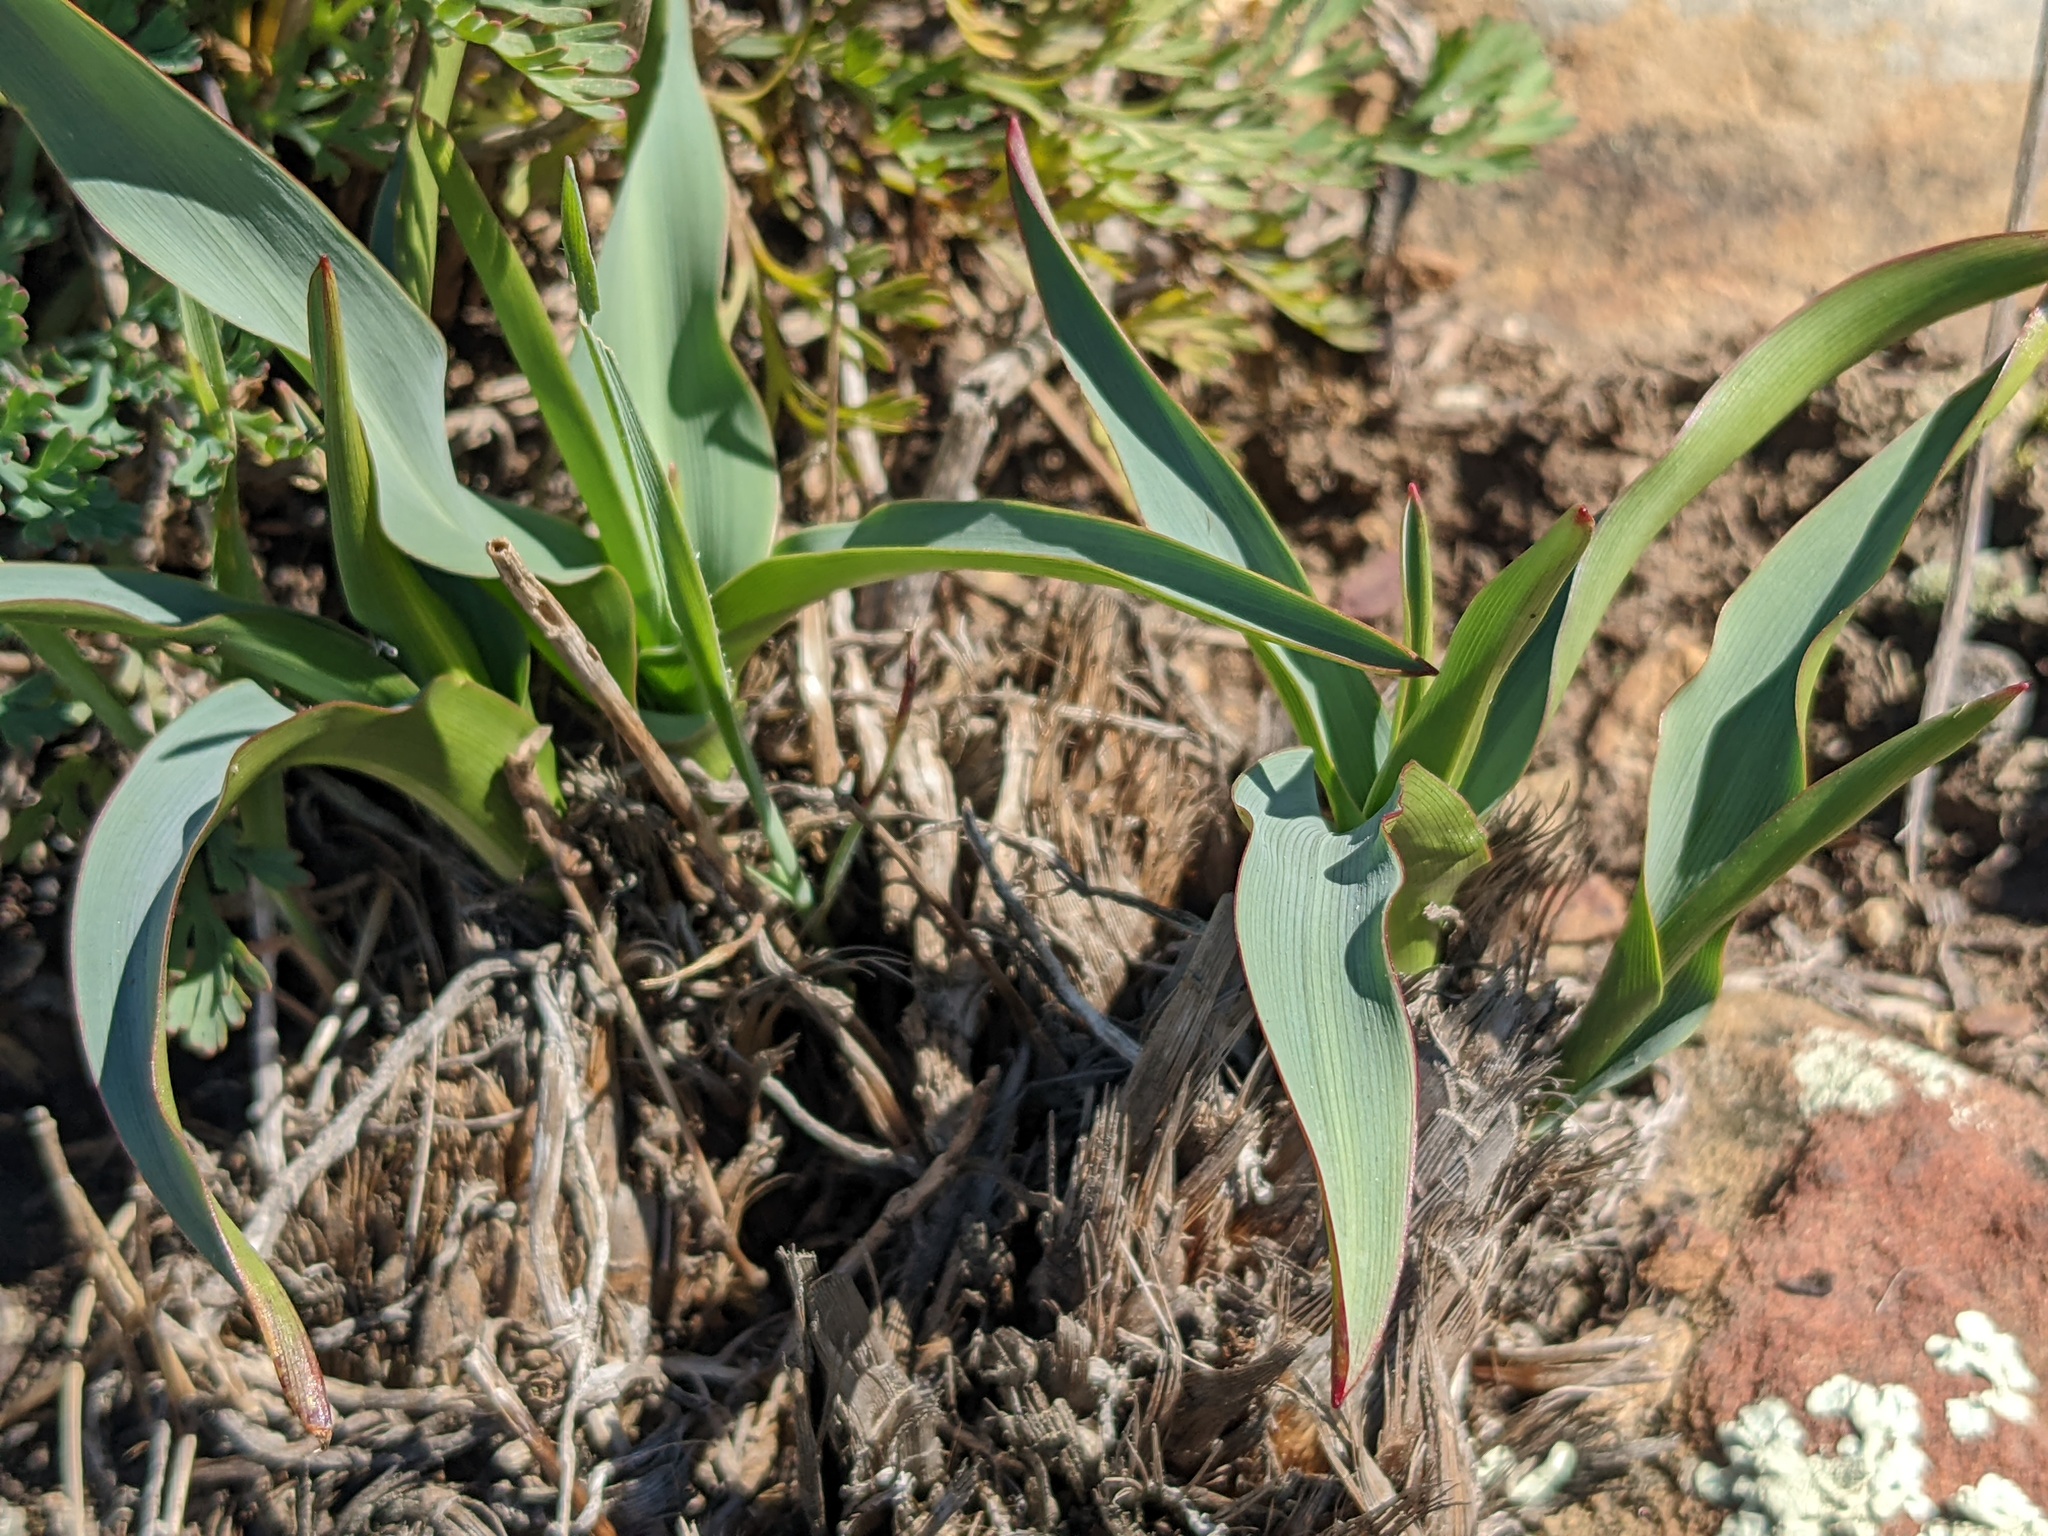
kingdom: Plantae
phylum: Tracheophyta
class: Liliopsida
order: Asparagales
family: Asparagaceae
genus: Chlorogalum
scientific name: Chlorogalum pomeridianum
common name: Amole
